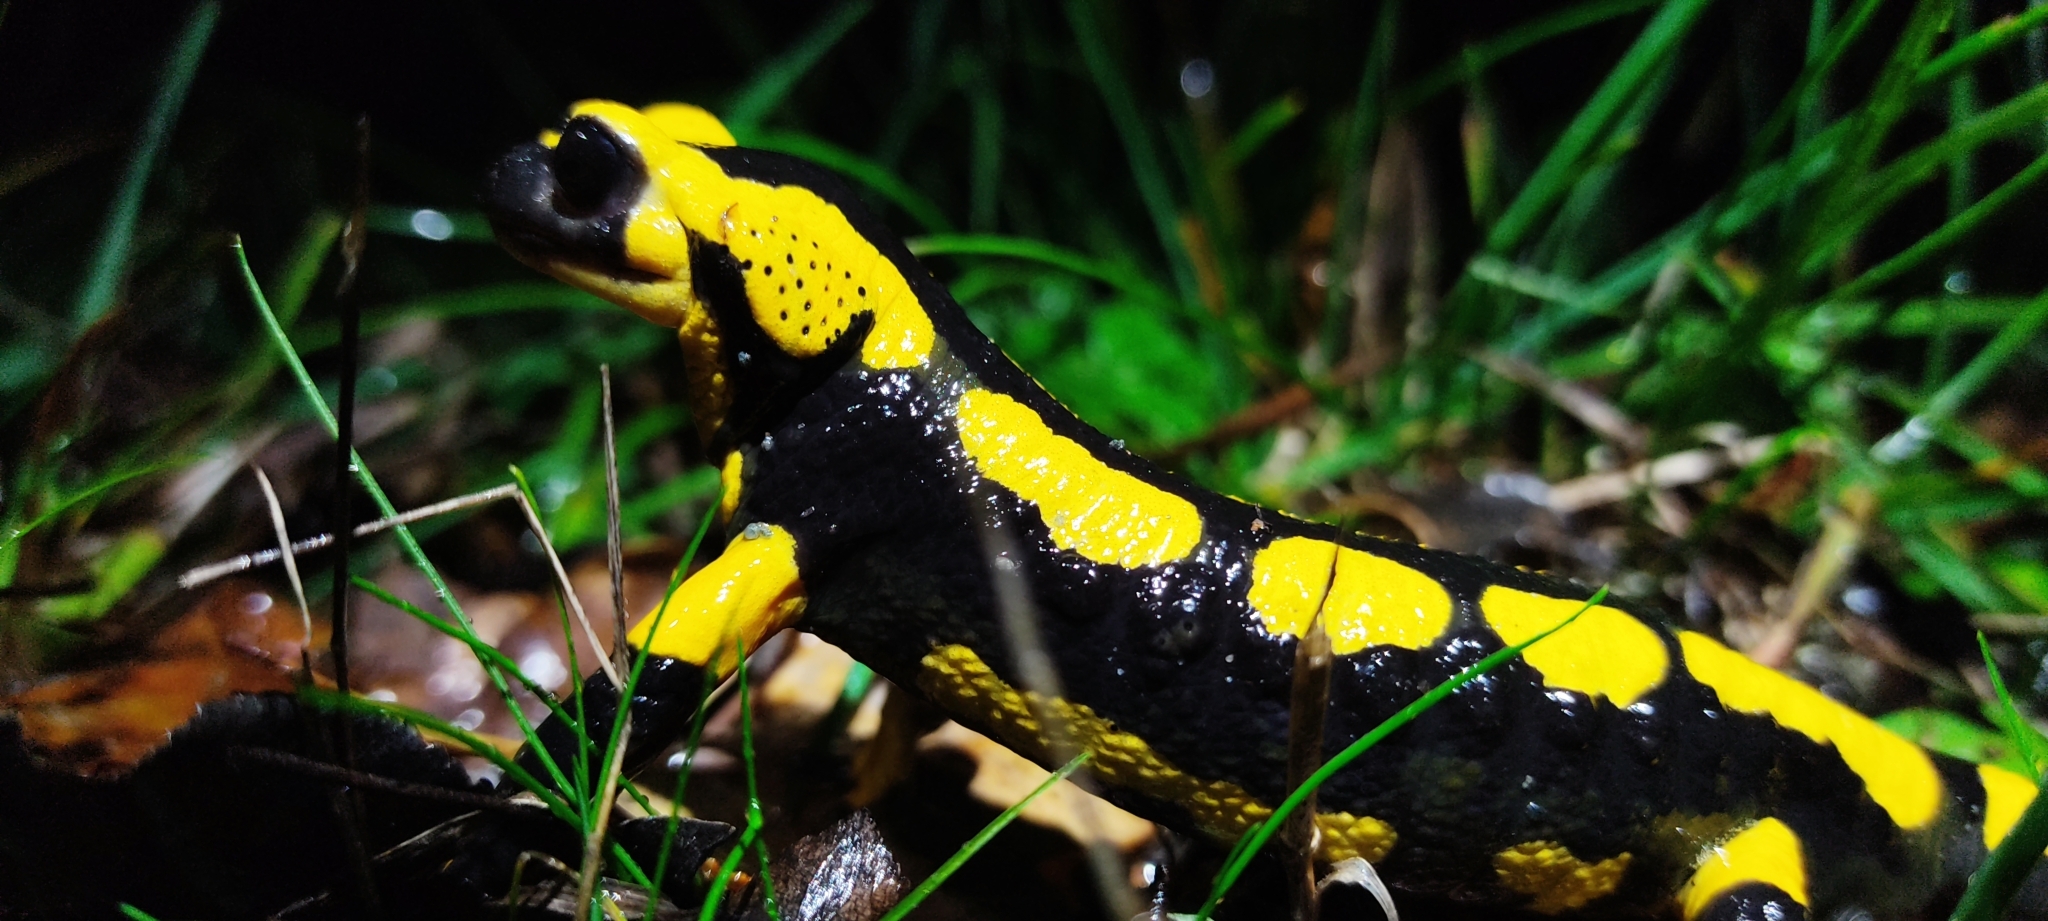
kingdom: Animalia
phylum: Chordata
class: Amphibia
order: Caudata
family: Salamandridae
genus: Salamandra
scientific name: Salamandra salamandra
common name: Fire salamander
